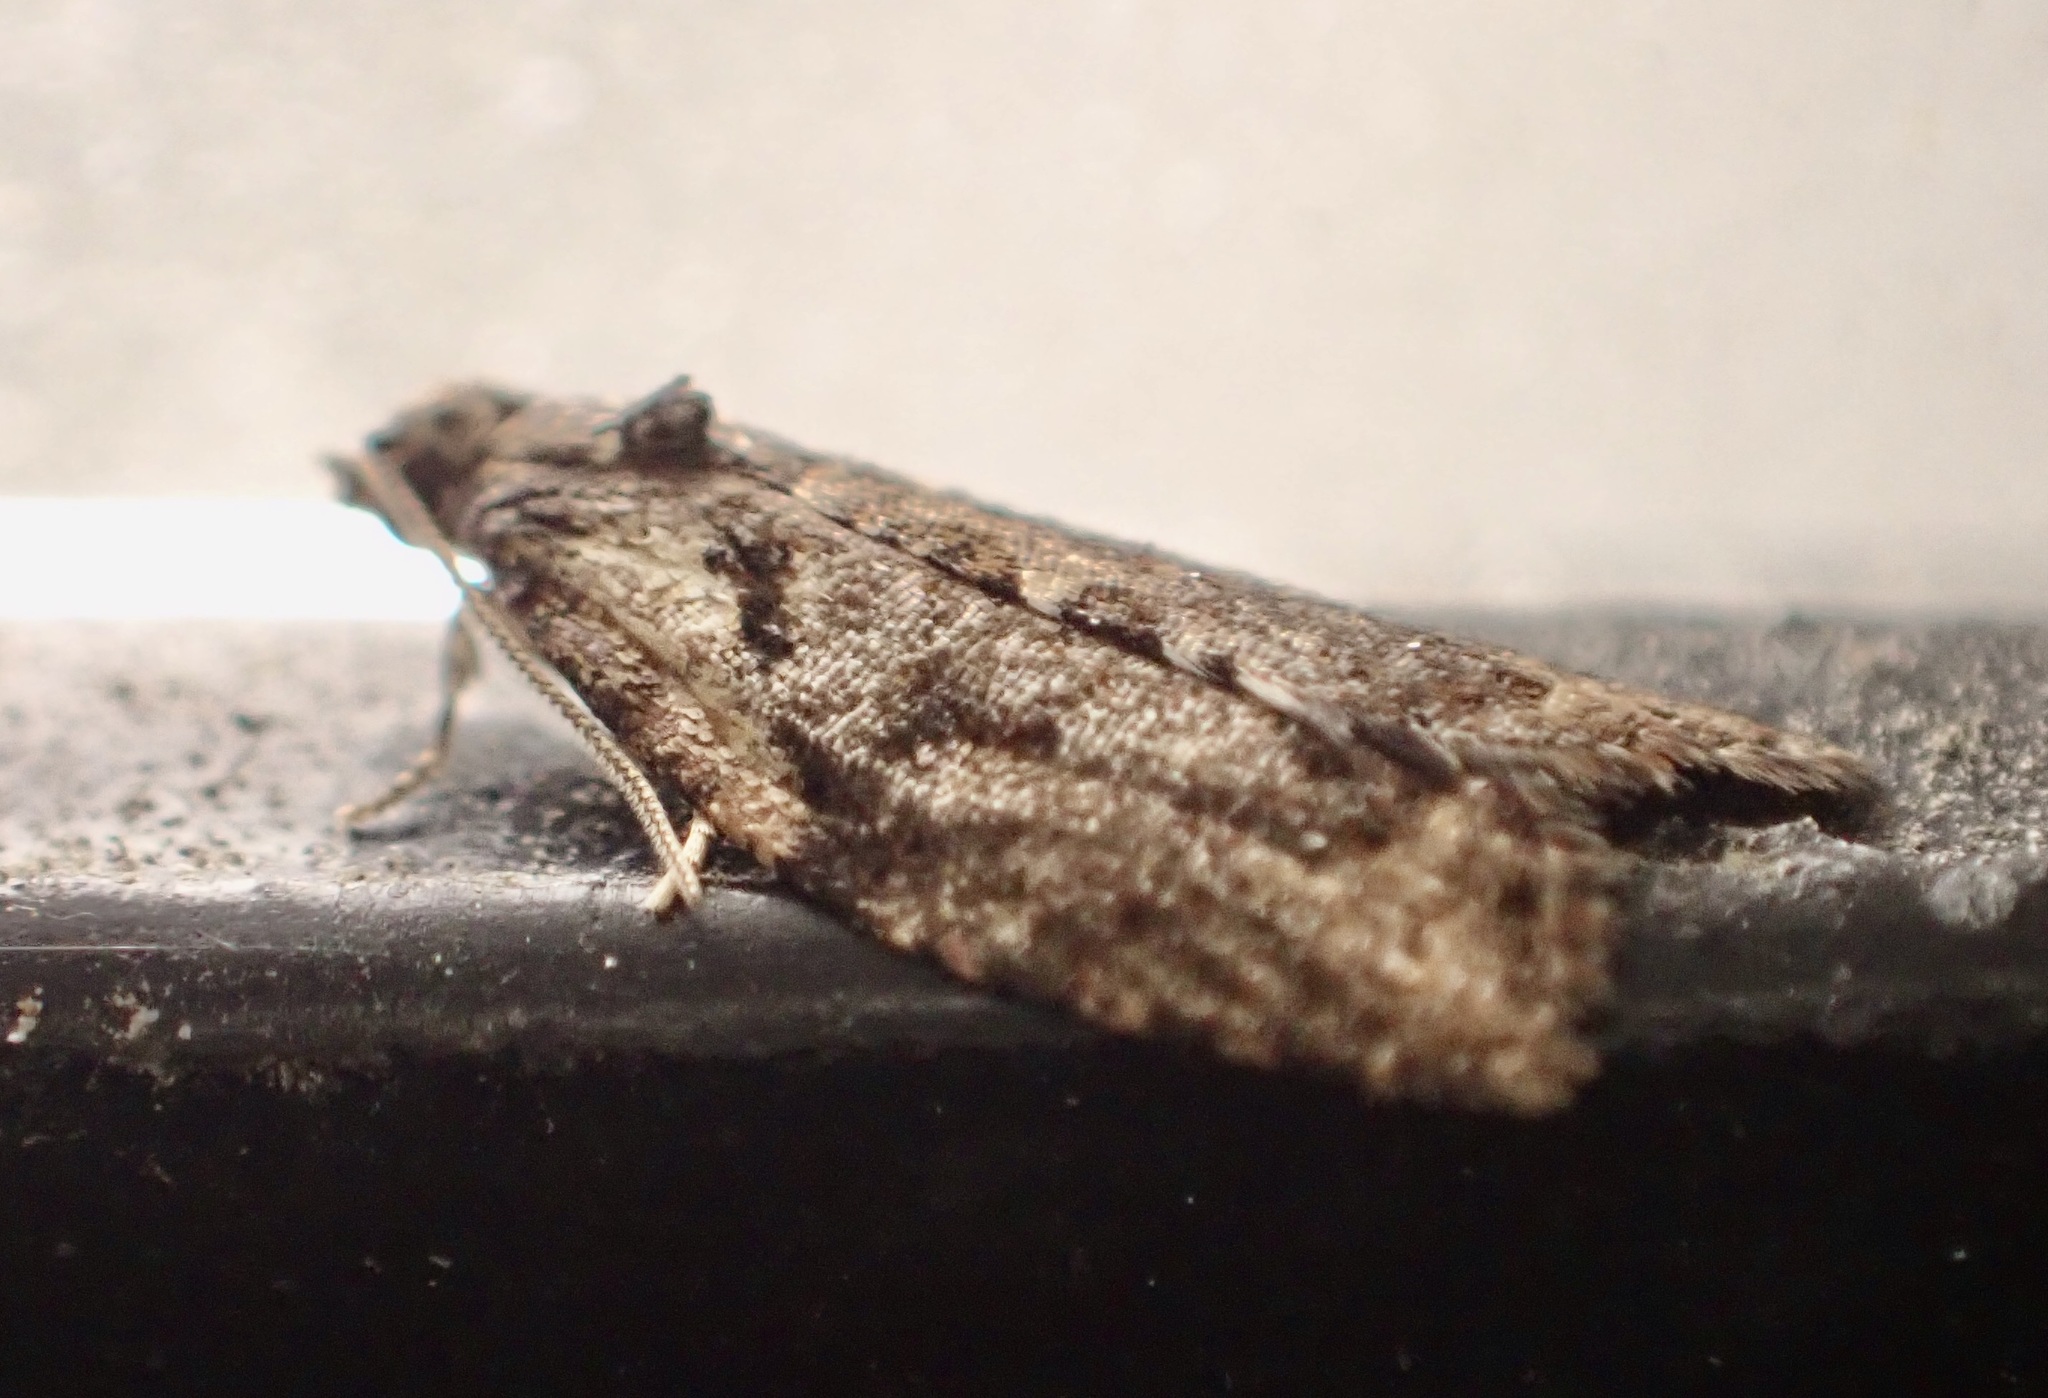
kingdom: Animalia
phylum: Arthropoda
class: Insecta
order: Lepidoptera
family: Tortricidae
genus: Capua
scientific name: Capua intractana
